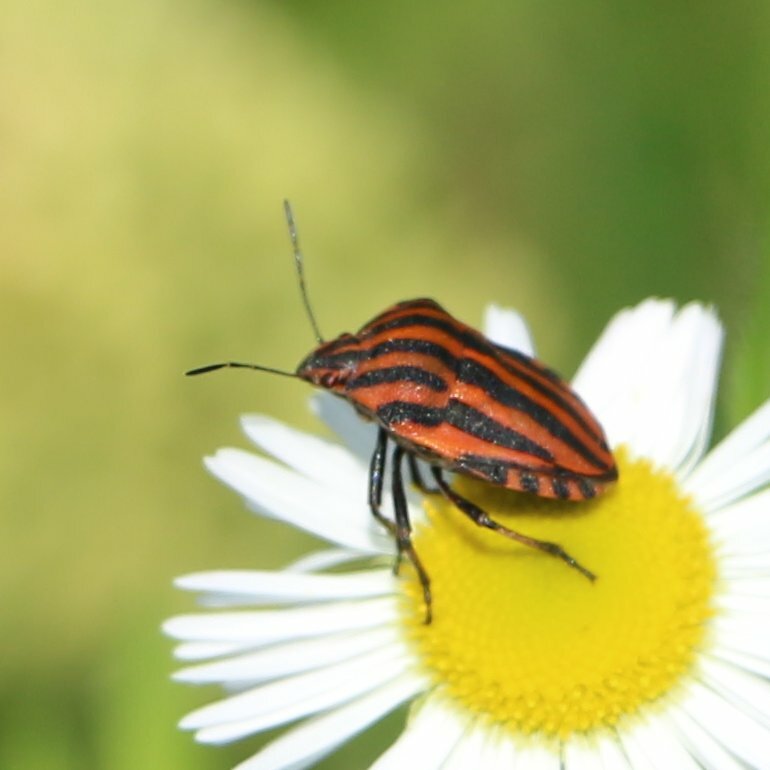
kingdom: Animalia
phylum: Arthropoda
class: Insecta
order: Hemiptera
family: Pentatomidae
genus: Graphosoma
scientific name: Graphosoma italicum
